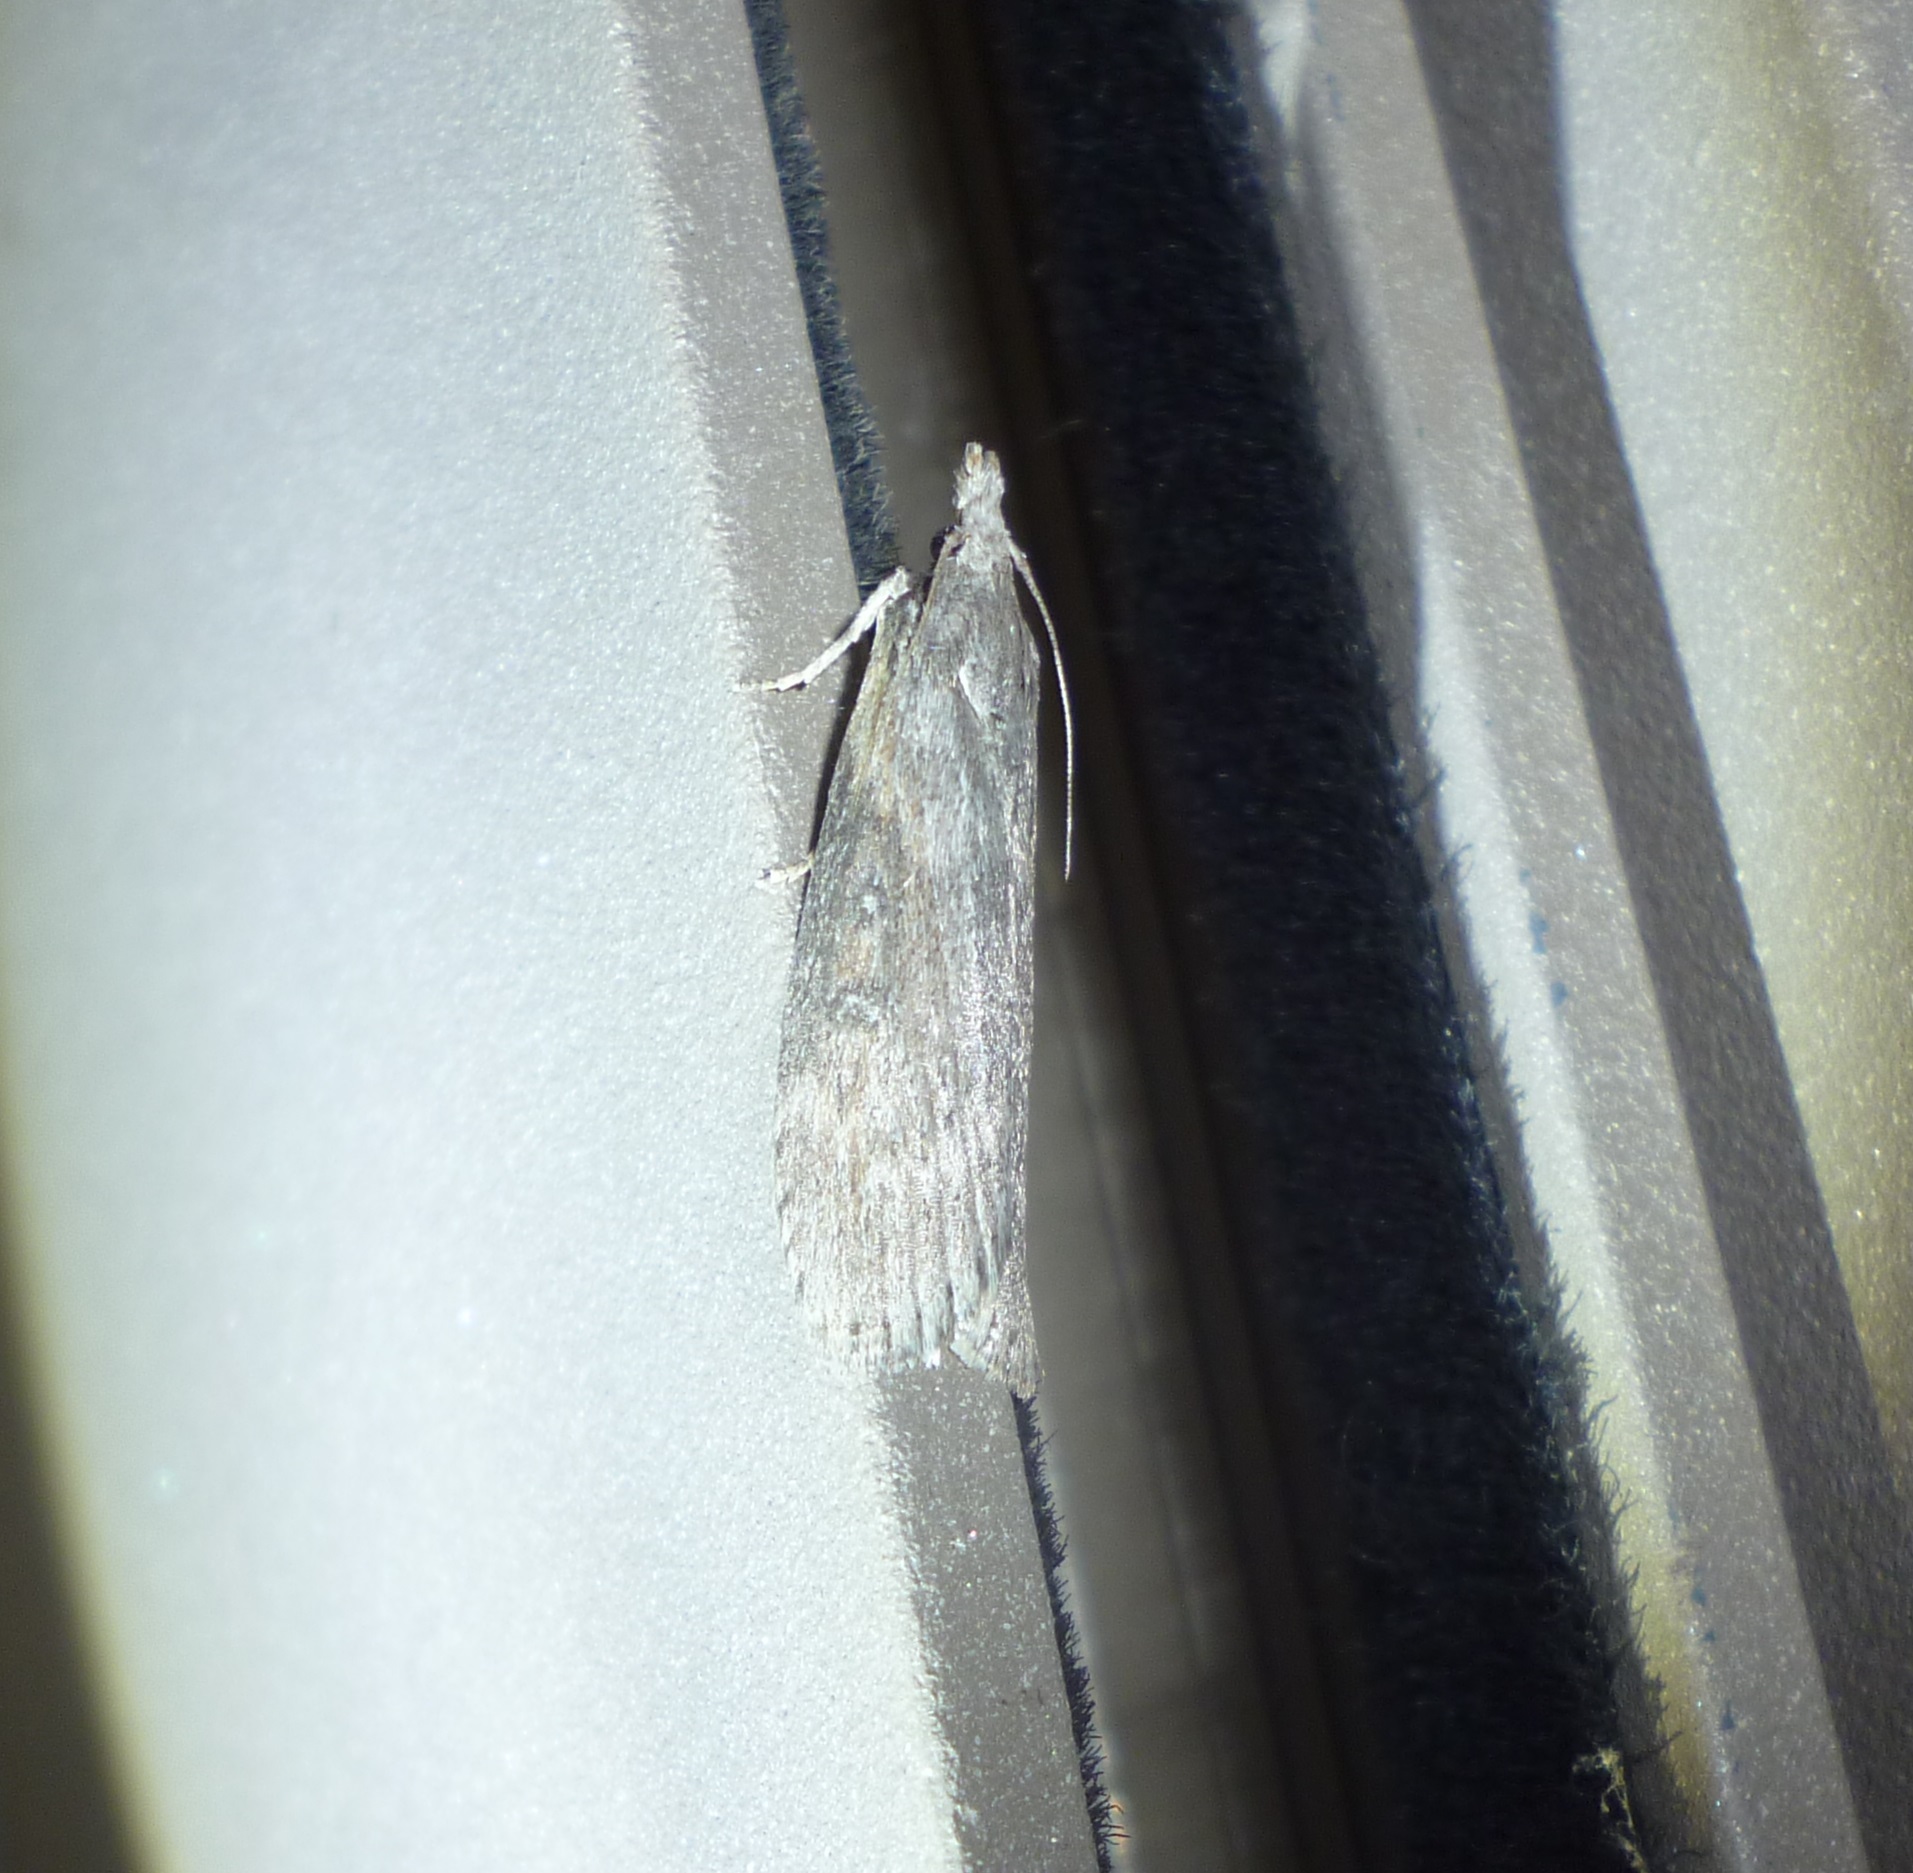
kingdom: Animalia
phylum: Arthropoda
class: Insecta
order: Lepidoptera
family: Pyralidae
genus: Lamoria
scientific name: Lamoria anella
